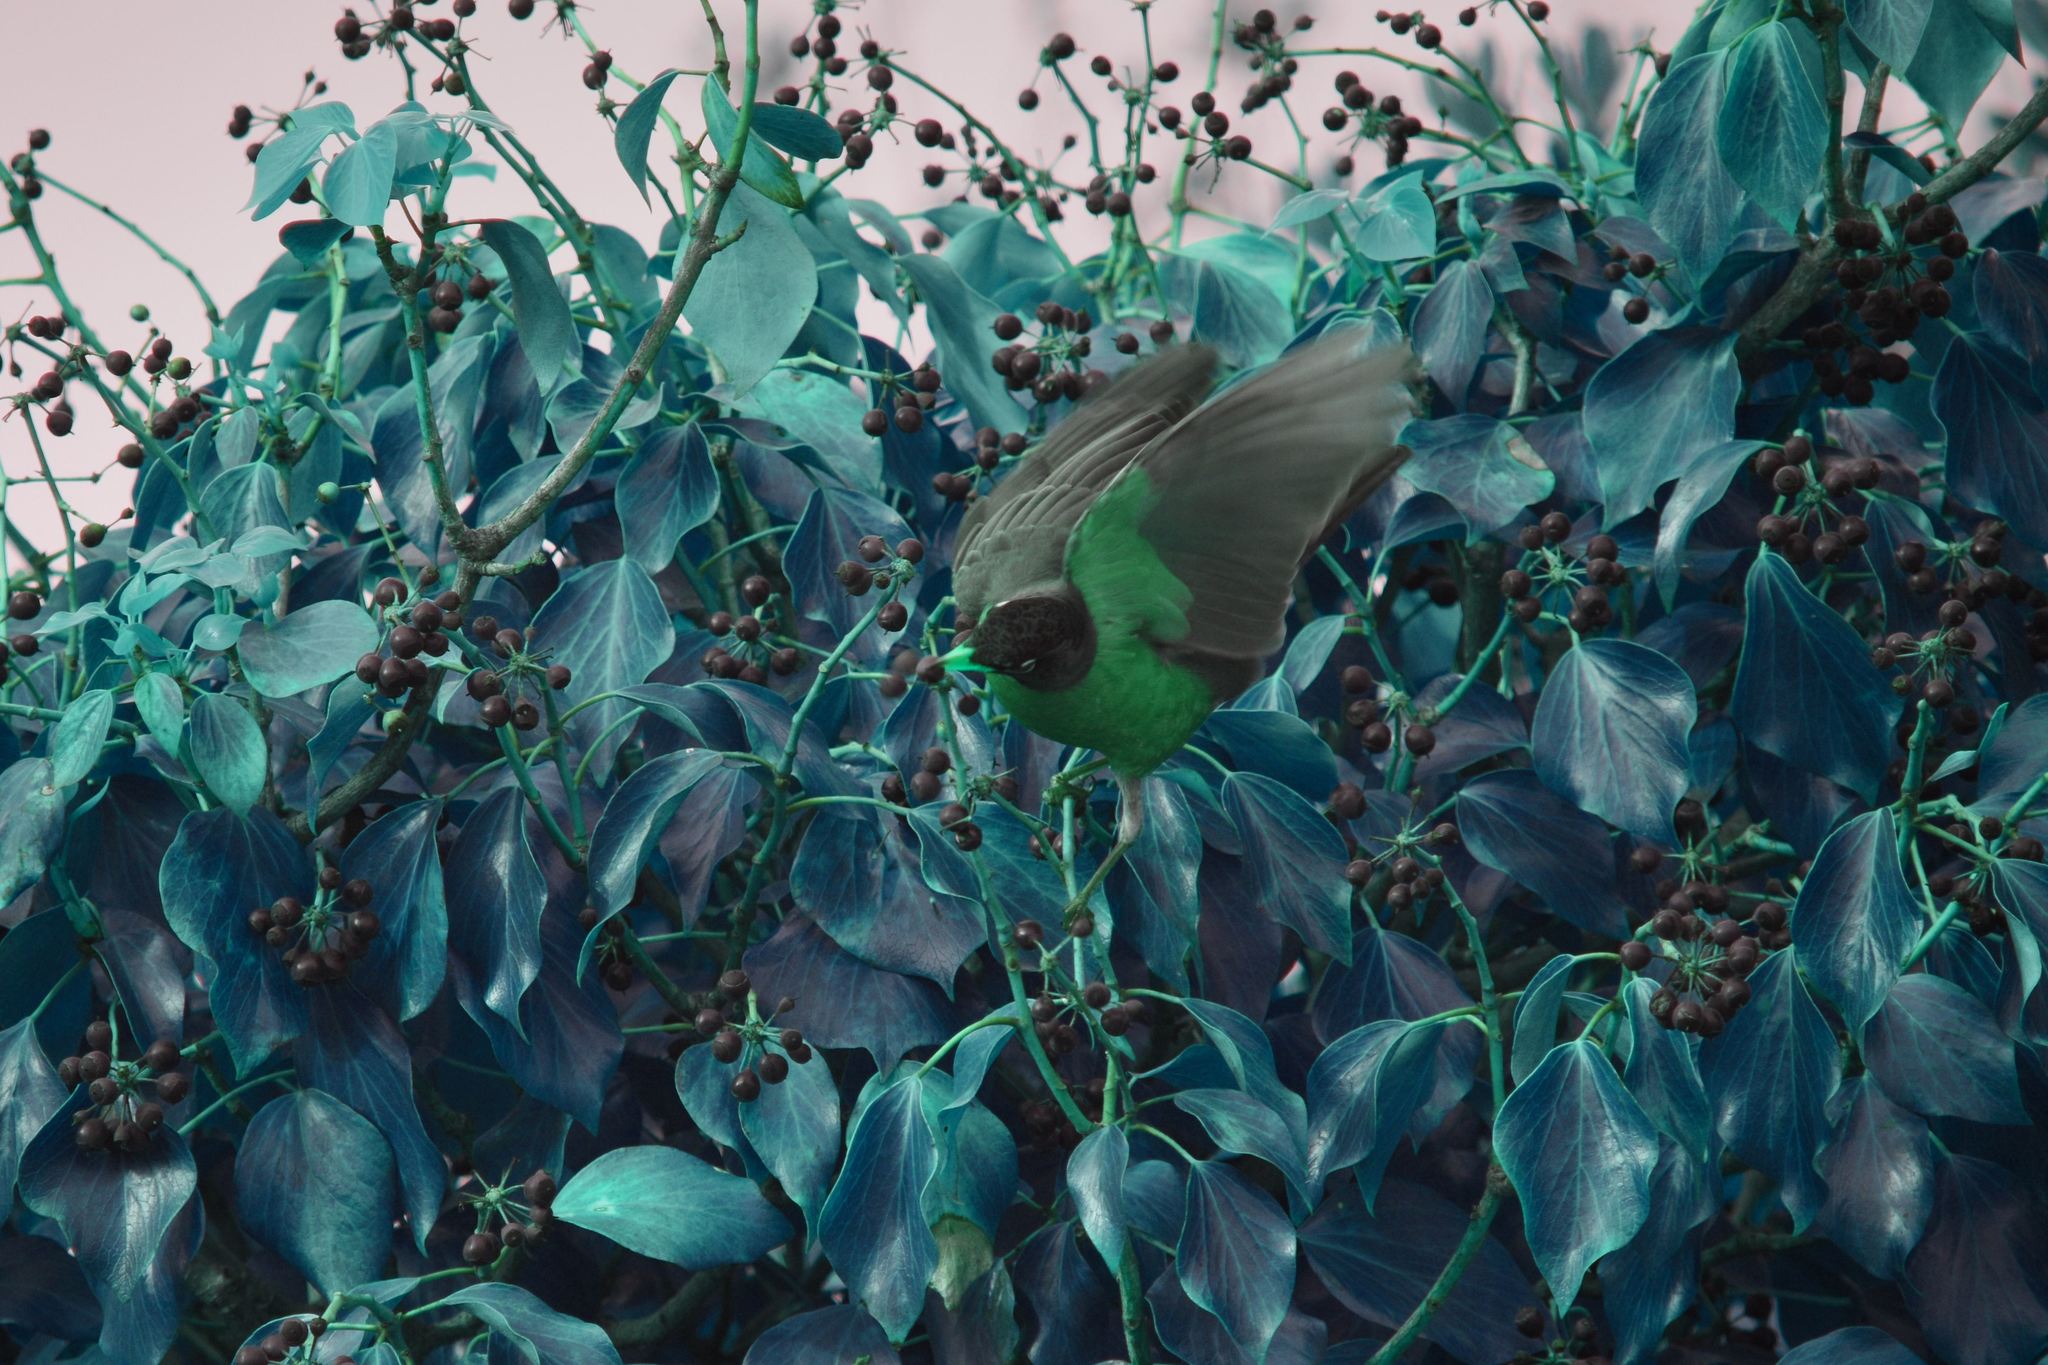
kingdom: Animalia
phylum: Chordata
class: Aves
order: Passeriformes
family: Turdidae
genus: Turdus
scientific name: Turdus migratorius
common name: American robin
